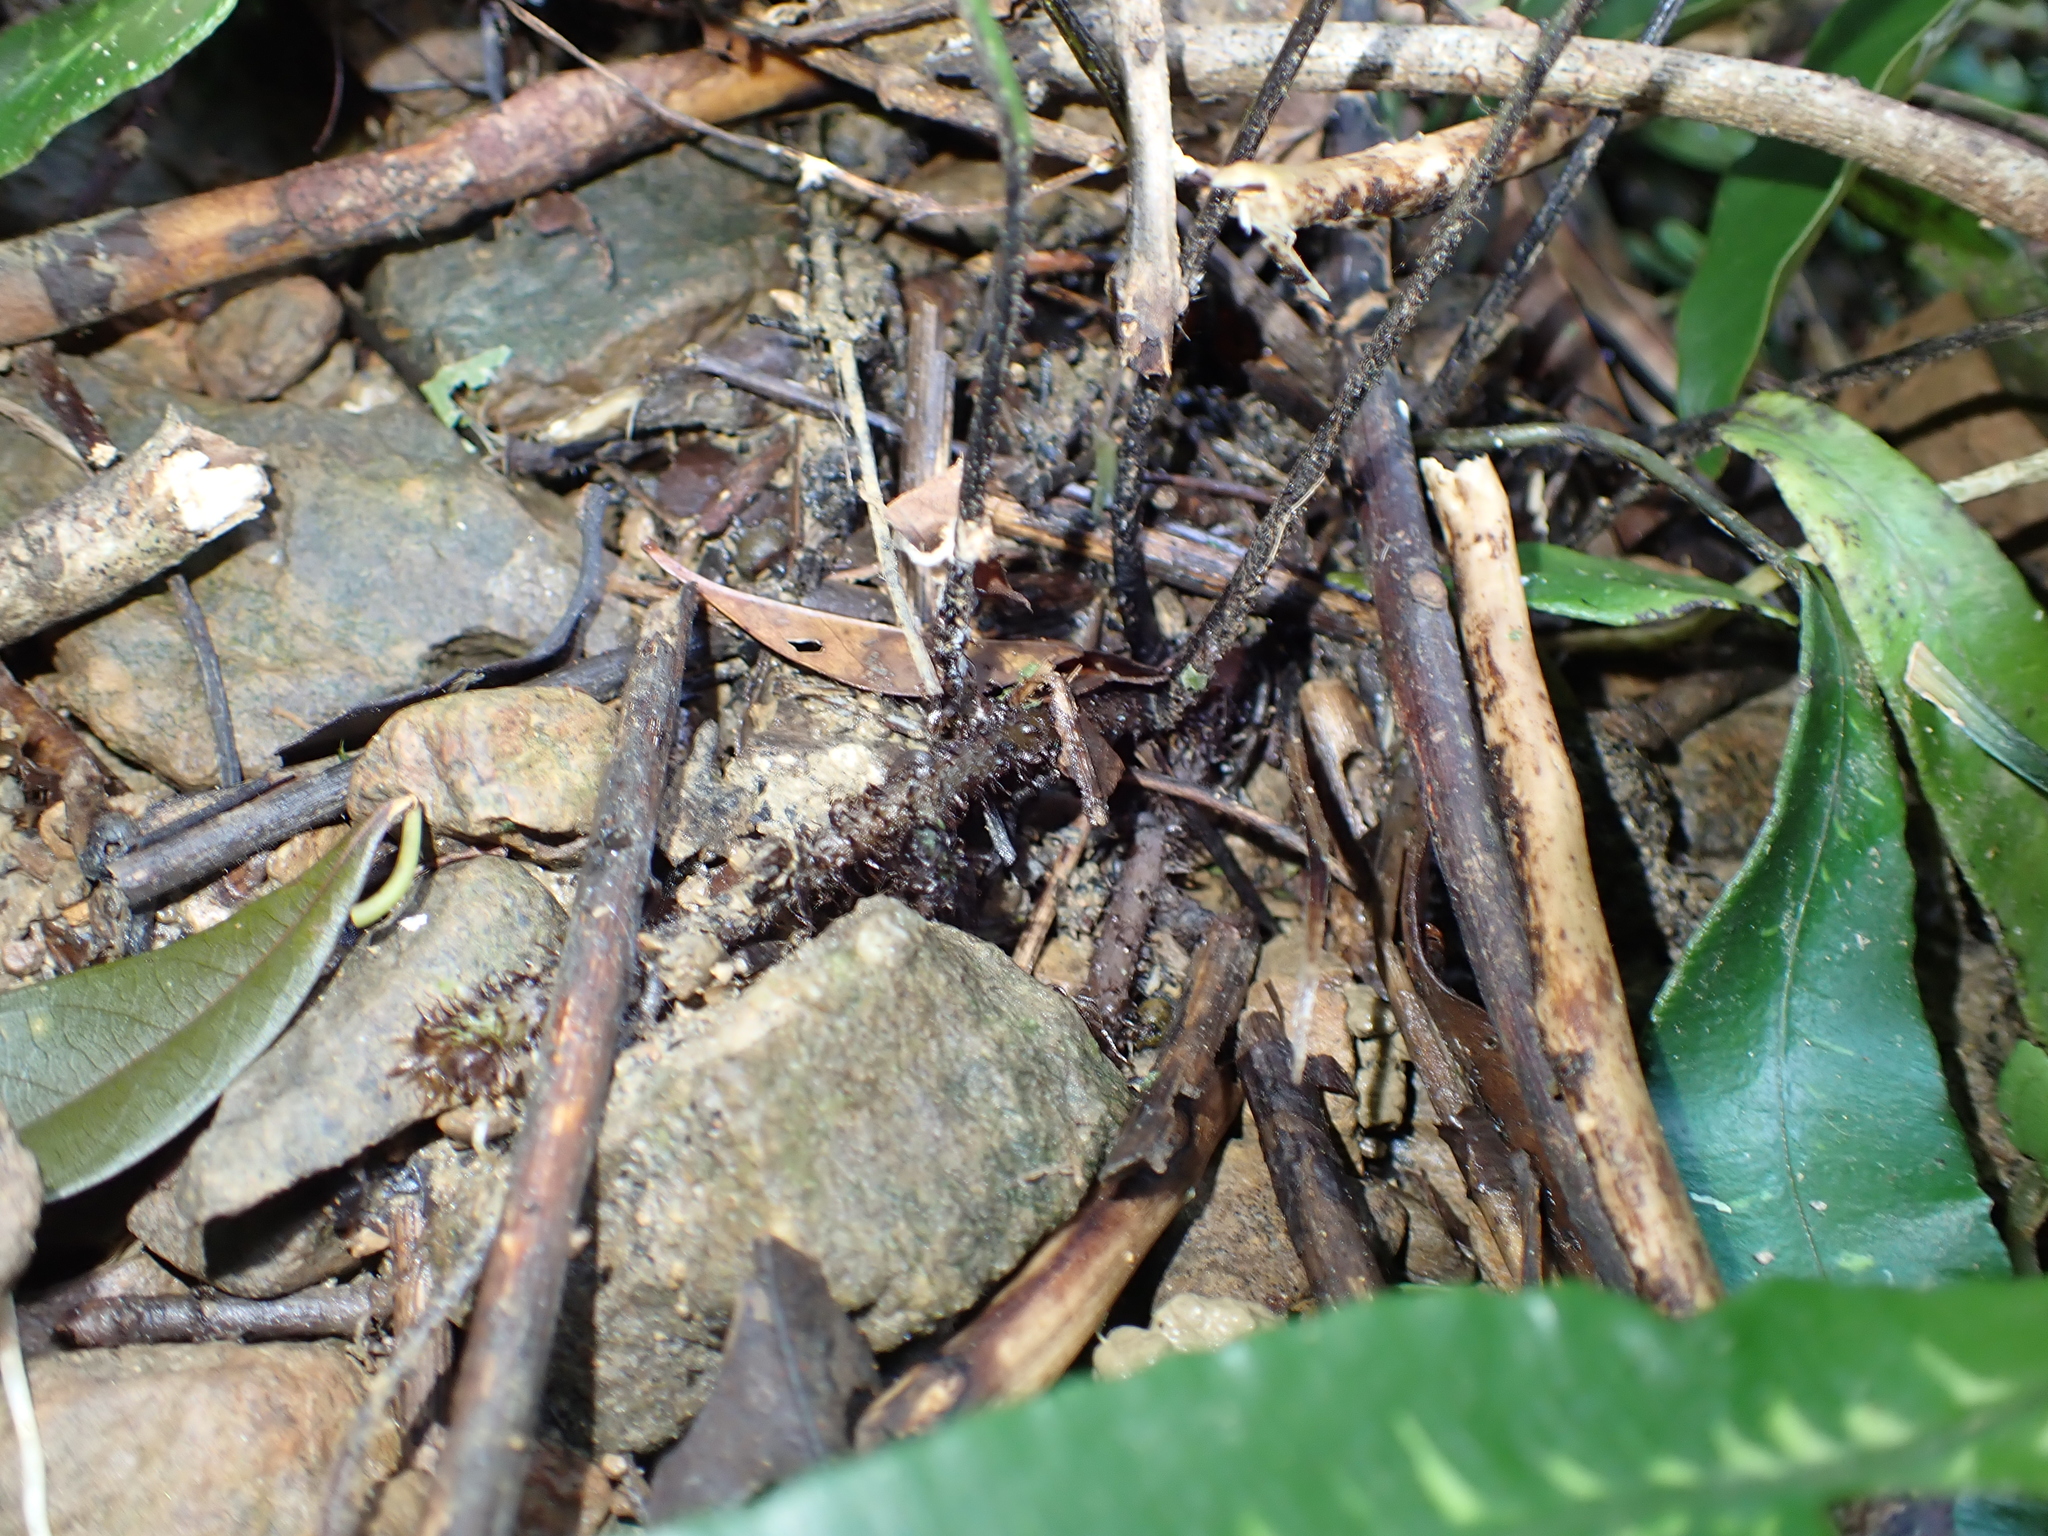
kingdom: Plantae
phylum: Tracheophyta
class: Polypodiopsida
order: Polypodiales
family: Athyriaceae
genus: Deparia
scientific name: Deparia lancea
